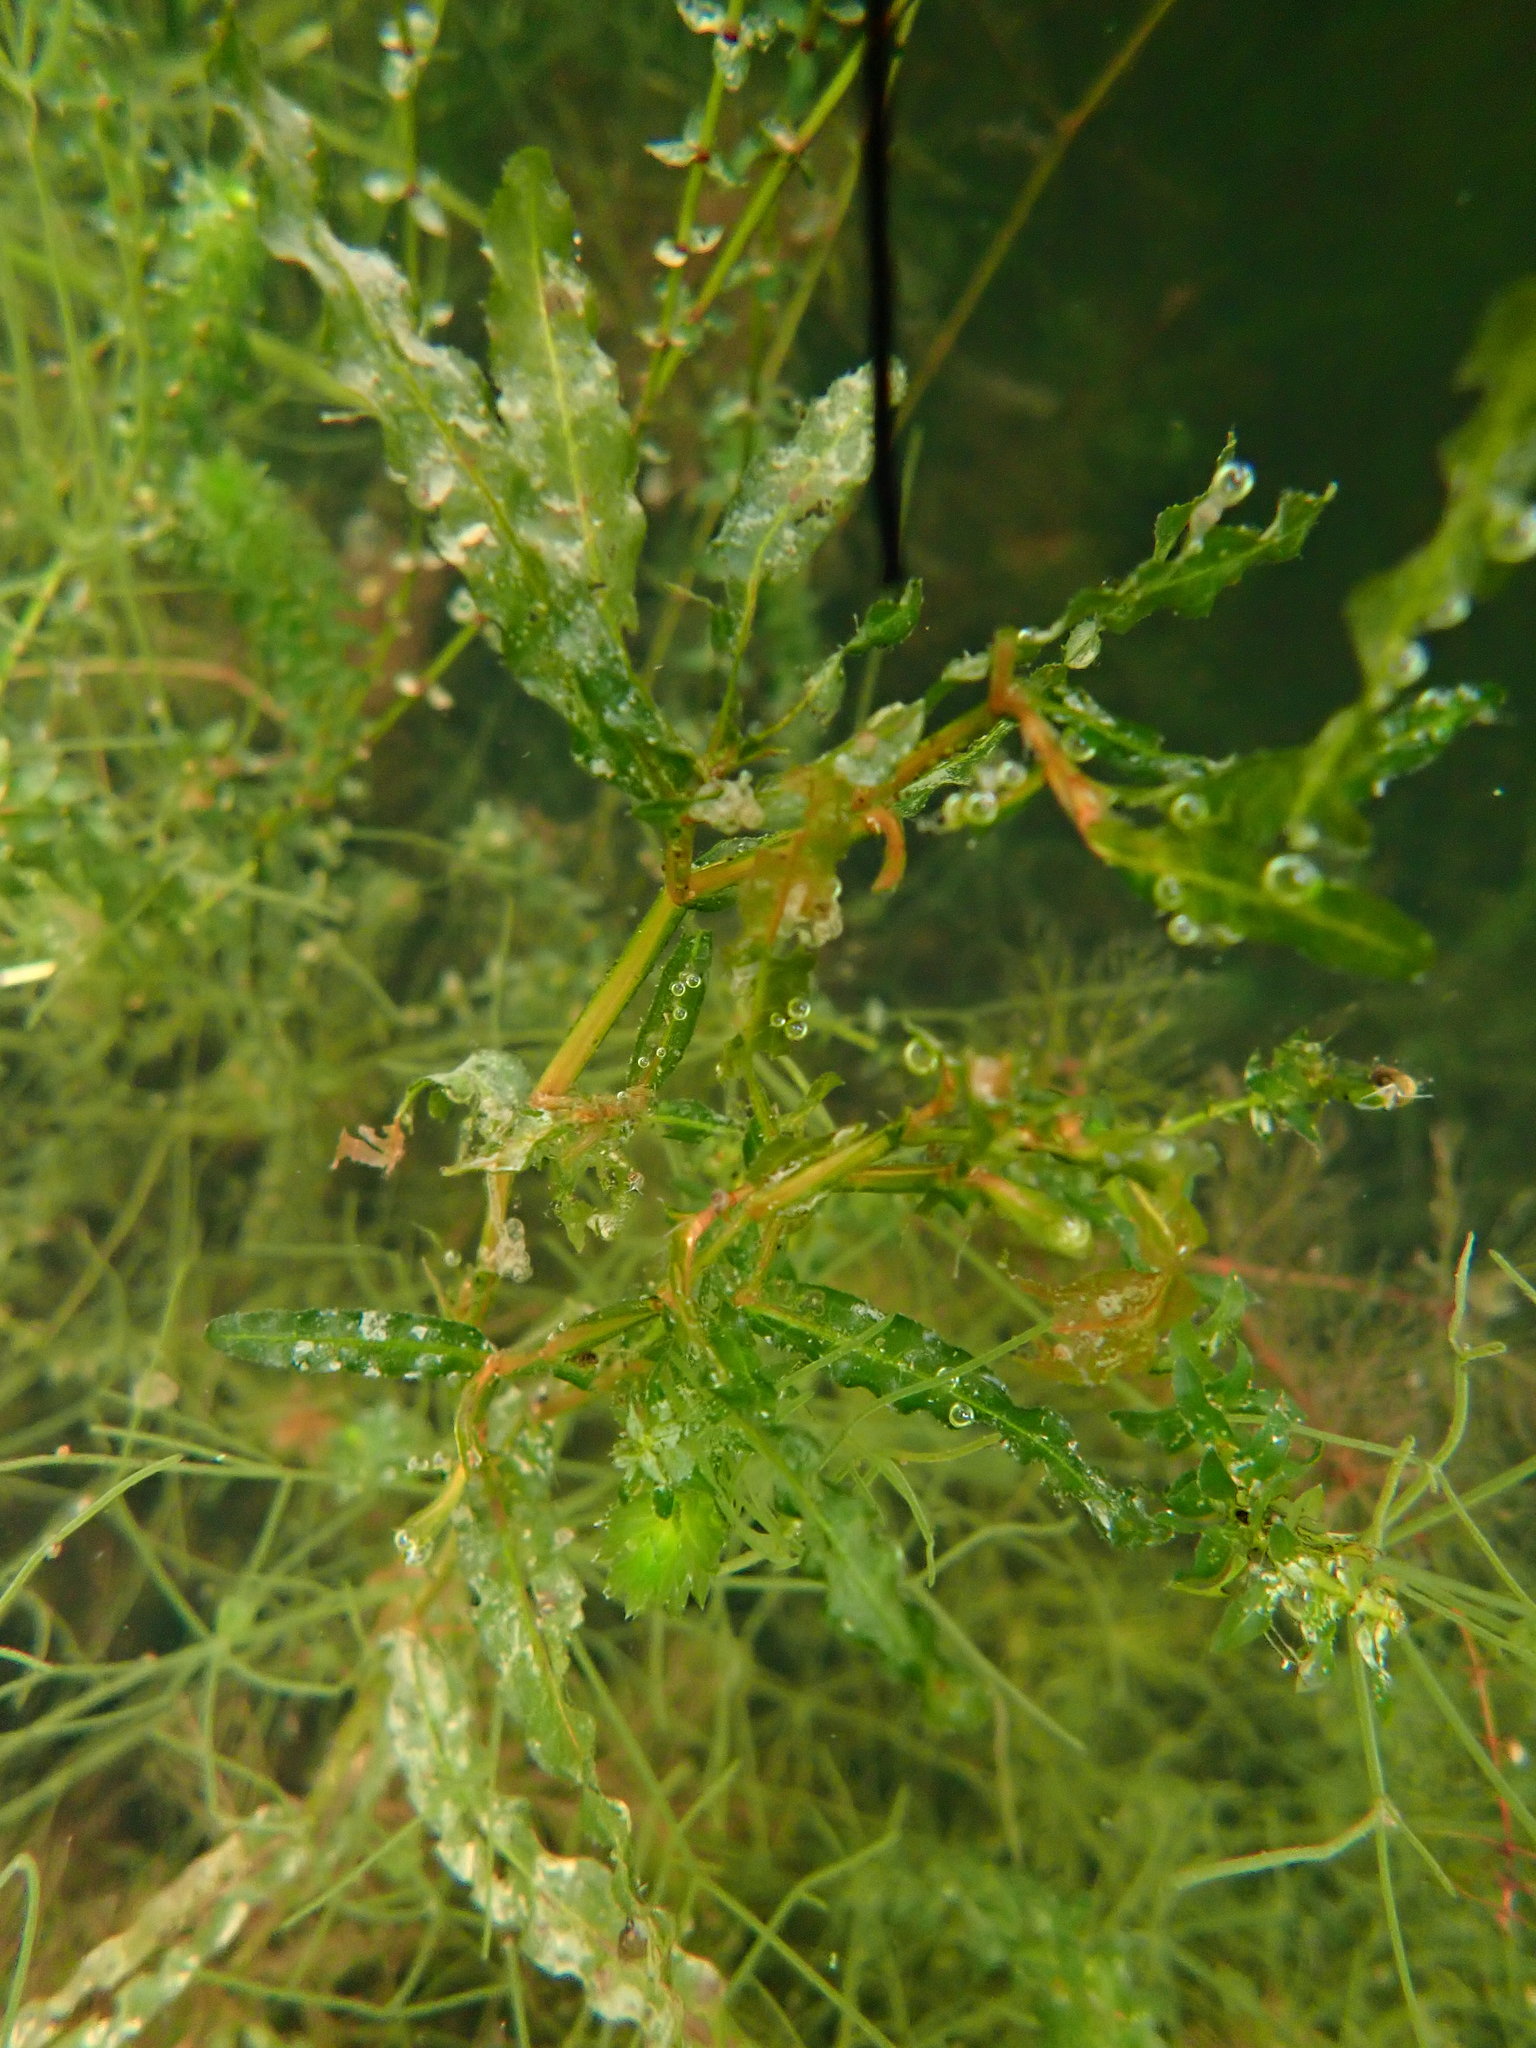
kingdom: Plantae
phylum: Tracheophyta
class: Liliopsida
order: Alismatales
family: Potamogetonaceae
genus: Potamogeton
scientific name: Potamogeton crispus
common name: Curled pondweed
